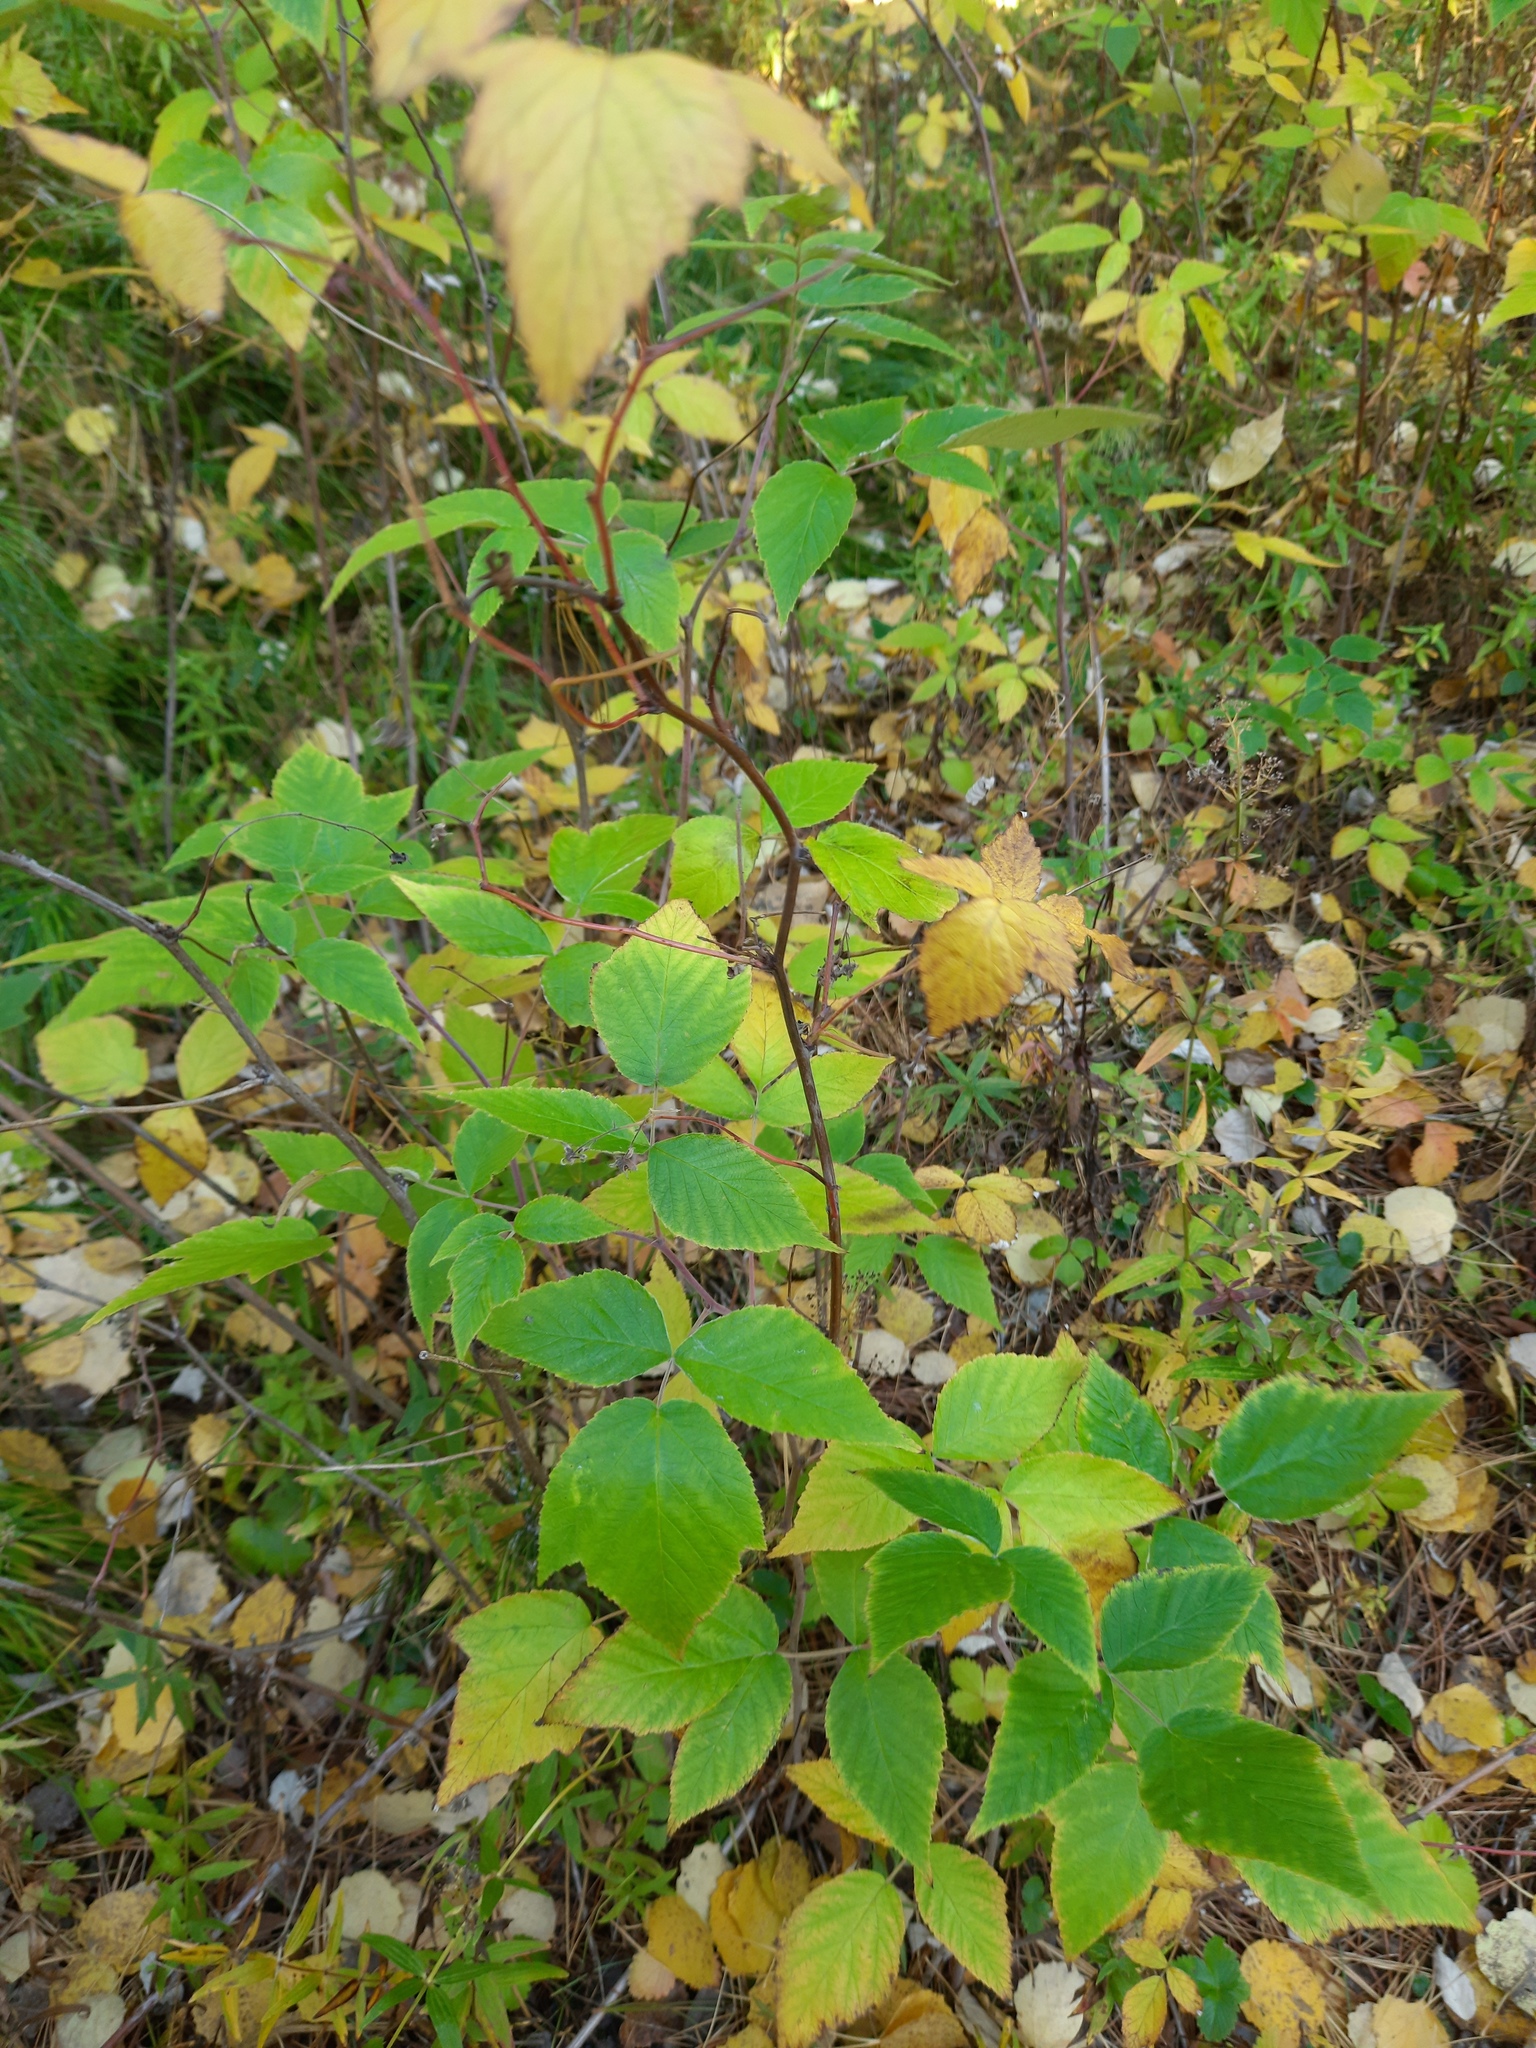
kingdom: Plantae
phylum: Tracheophyta
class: Magnoliopsida
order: Rosales
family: Rosaceae
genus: Rubus
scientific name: Rubus idaeus
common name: Raspberry
